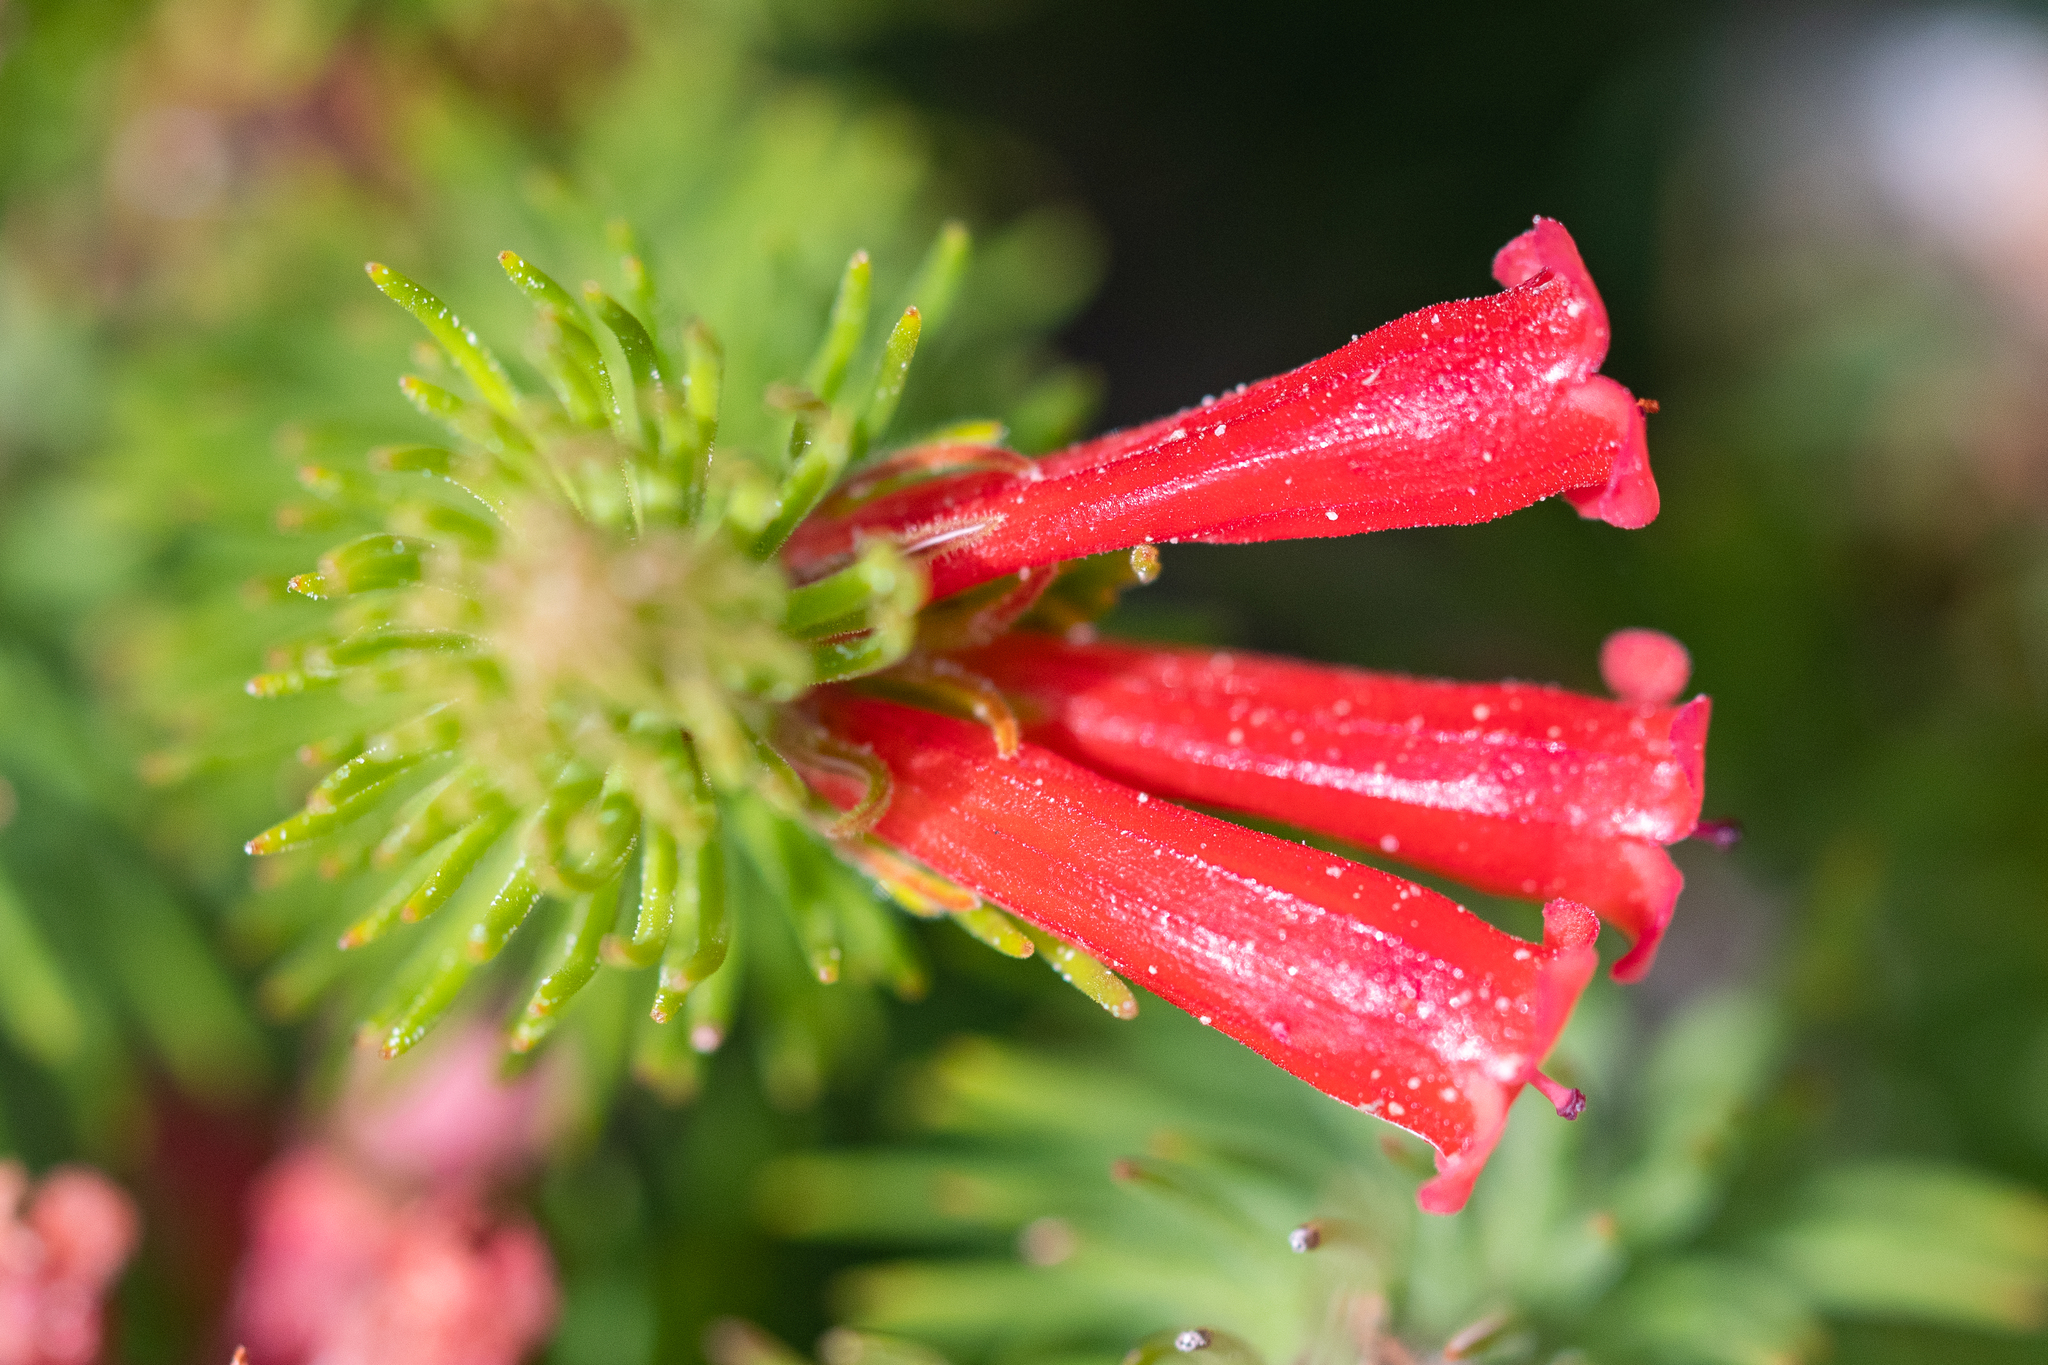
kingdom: Plantae
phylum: Tracheophyta
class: Magnoliopsida
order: Ericales
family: Ericaceae
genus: Erica
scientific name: Erica viscaria
